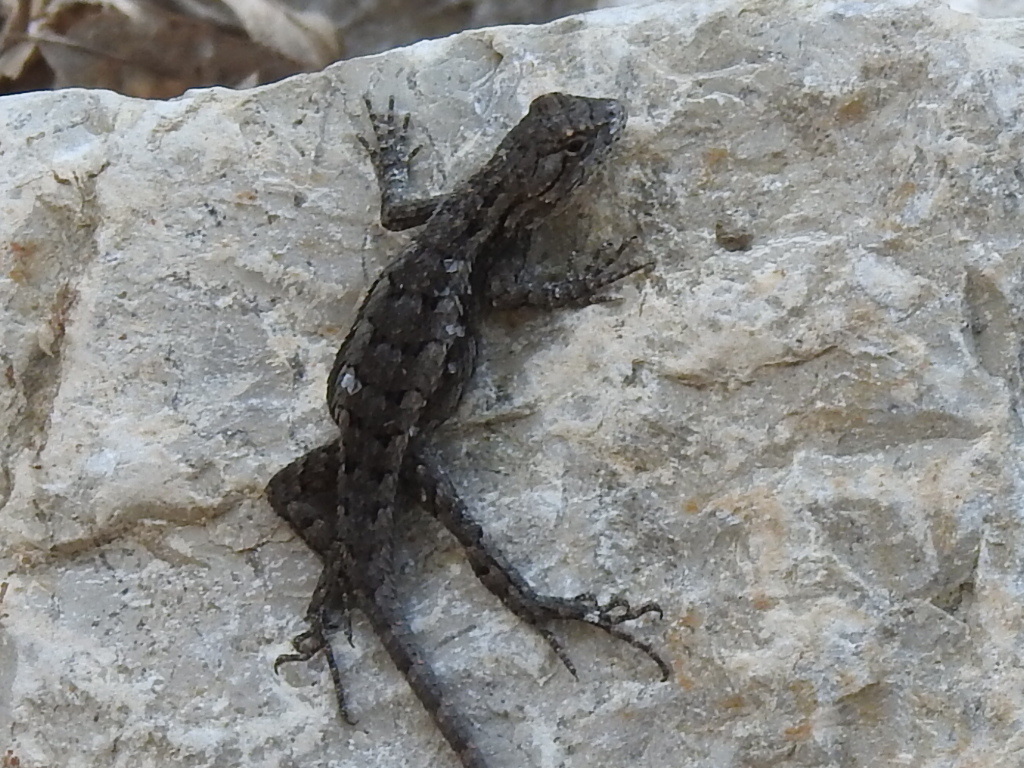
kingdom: Animalia
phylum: Chordata
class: Squamata
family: Phrynosomatidae
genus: Sceloporus
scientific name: Sceloporus olivaceus
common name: Texas spiny lizard
